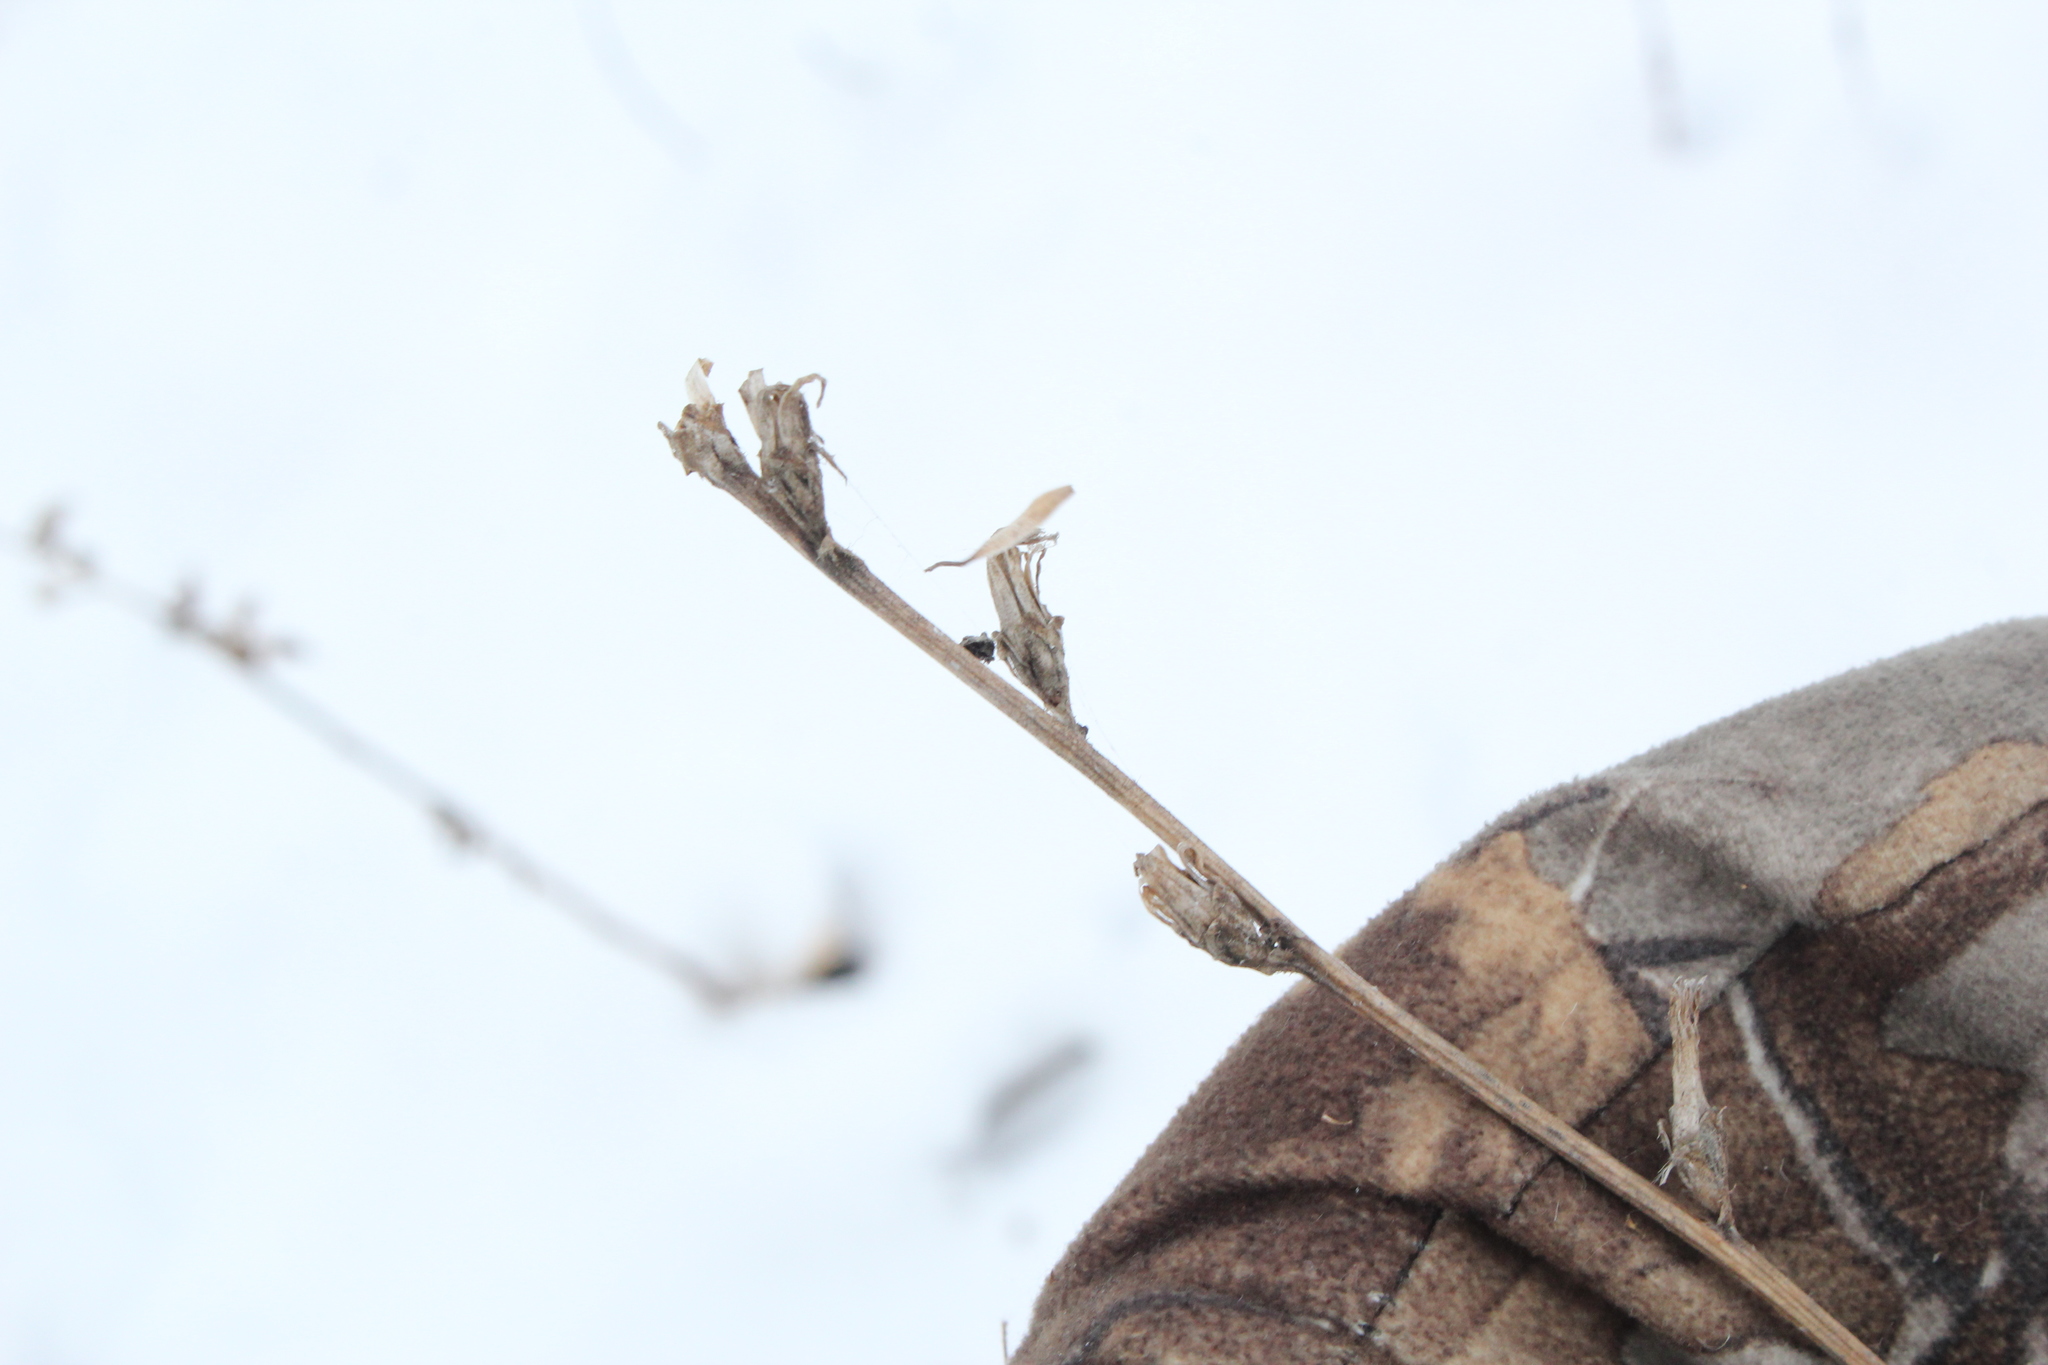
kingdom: Plantae
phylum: Tracheophyta
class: Magnoliopsida
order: Asterales
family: Asteraceae
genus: Cichorium
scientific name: Cichorium intybus
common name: Chicory
